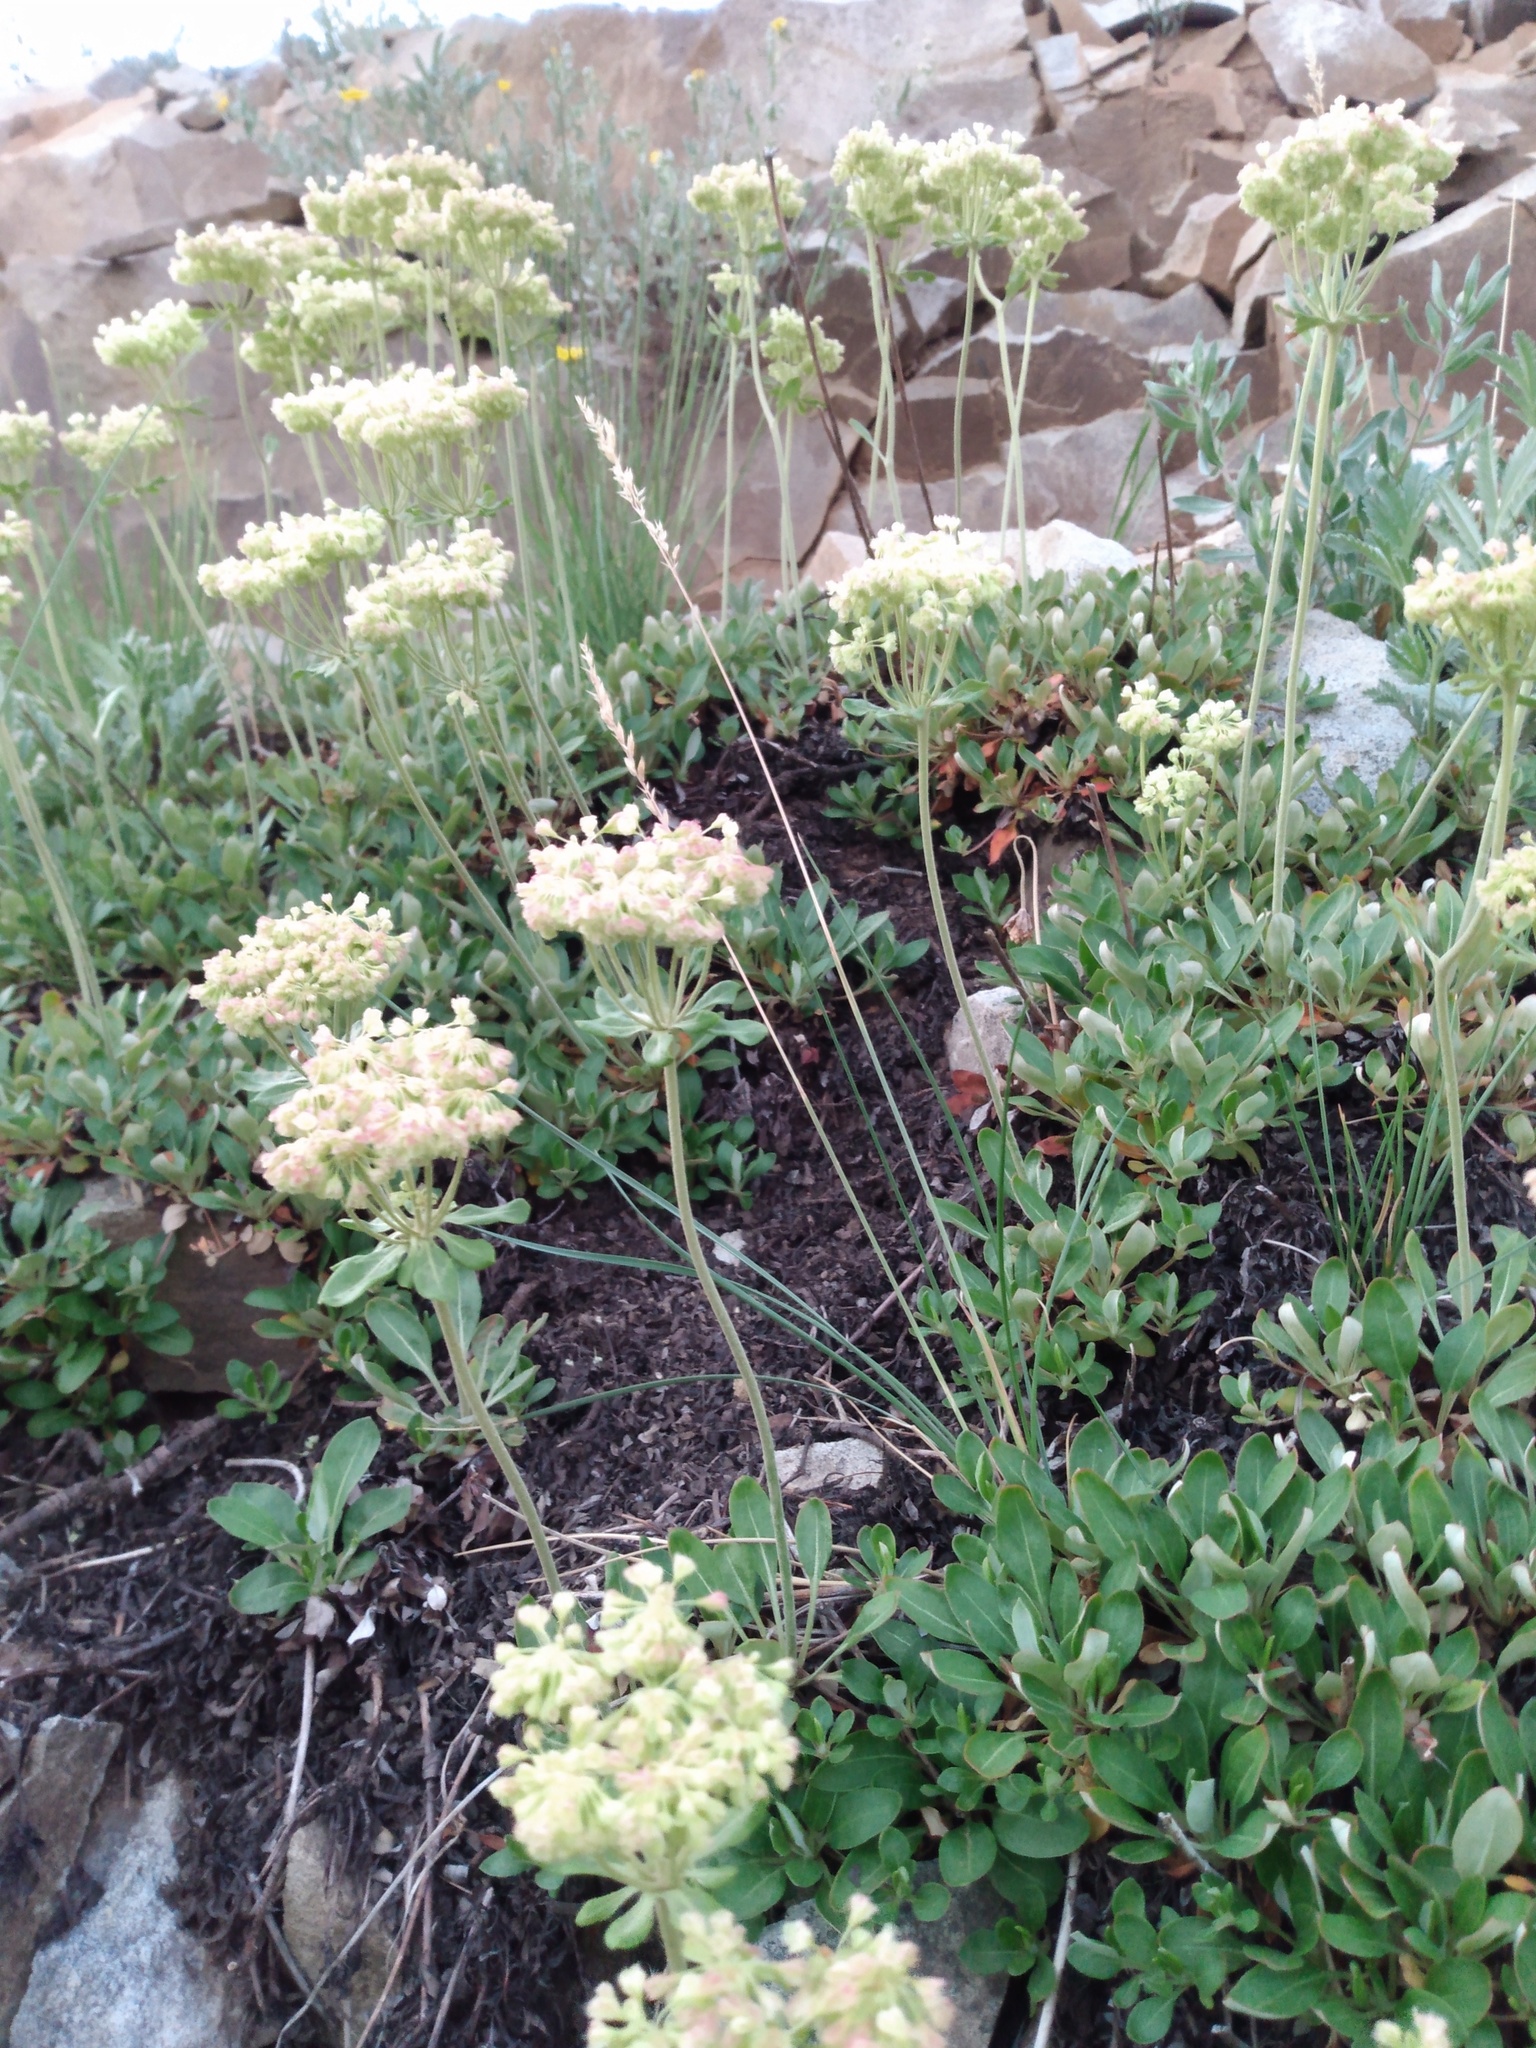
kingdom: Plantae
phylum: Tracheophyta
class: Magnoliopsida
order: Caryophyllales
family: Polygonaceae
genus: Eriogonum
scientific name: Eriogonum umbellatum
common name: Sulfur-buckwheat
